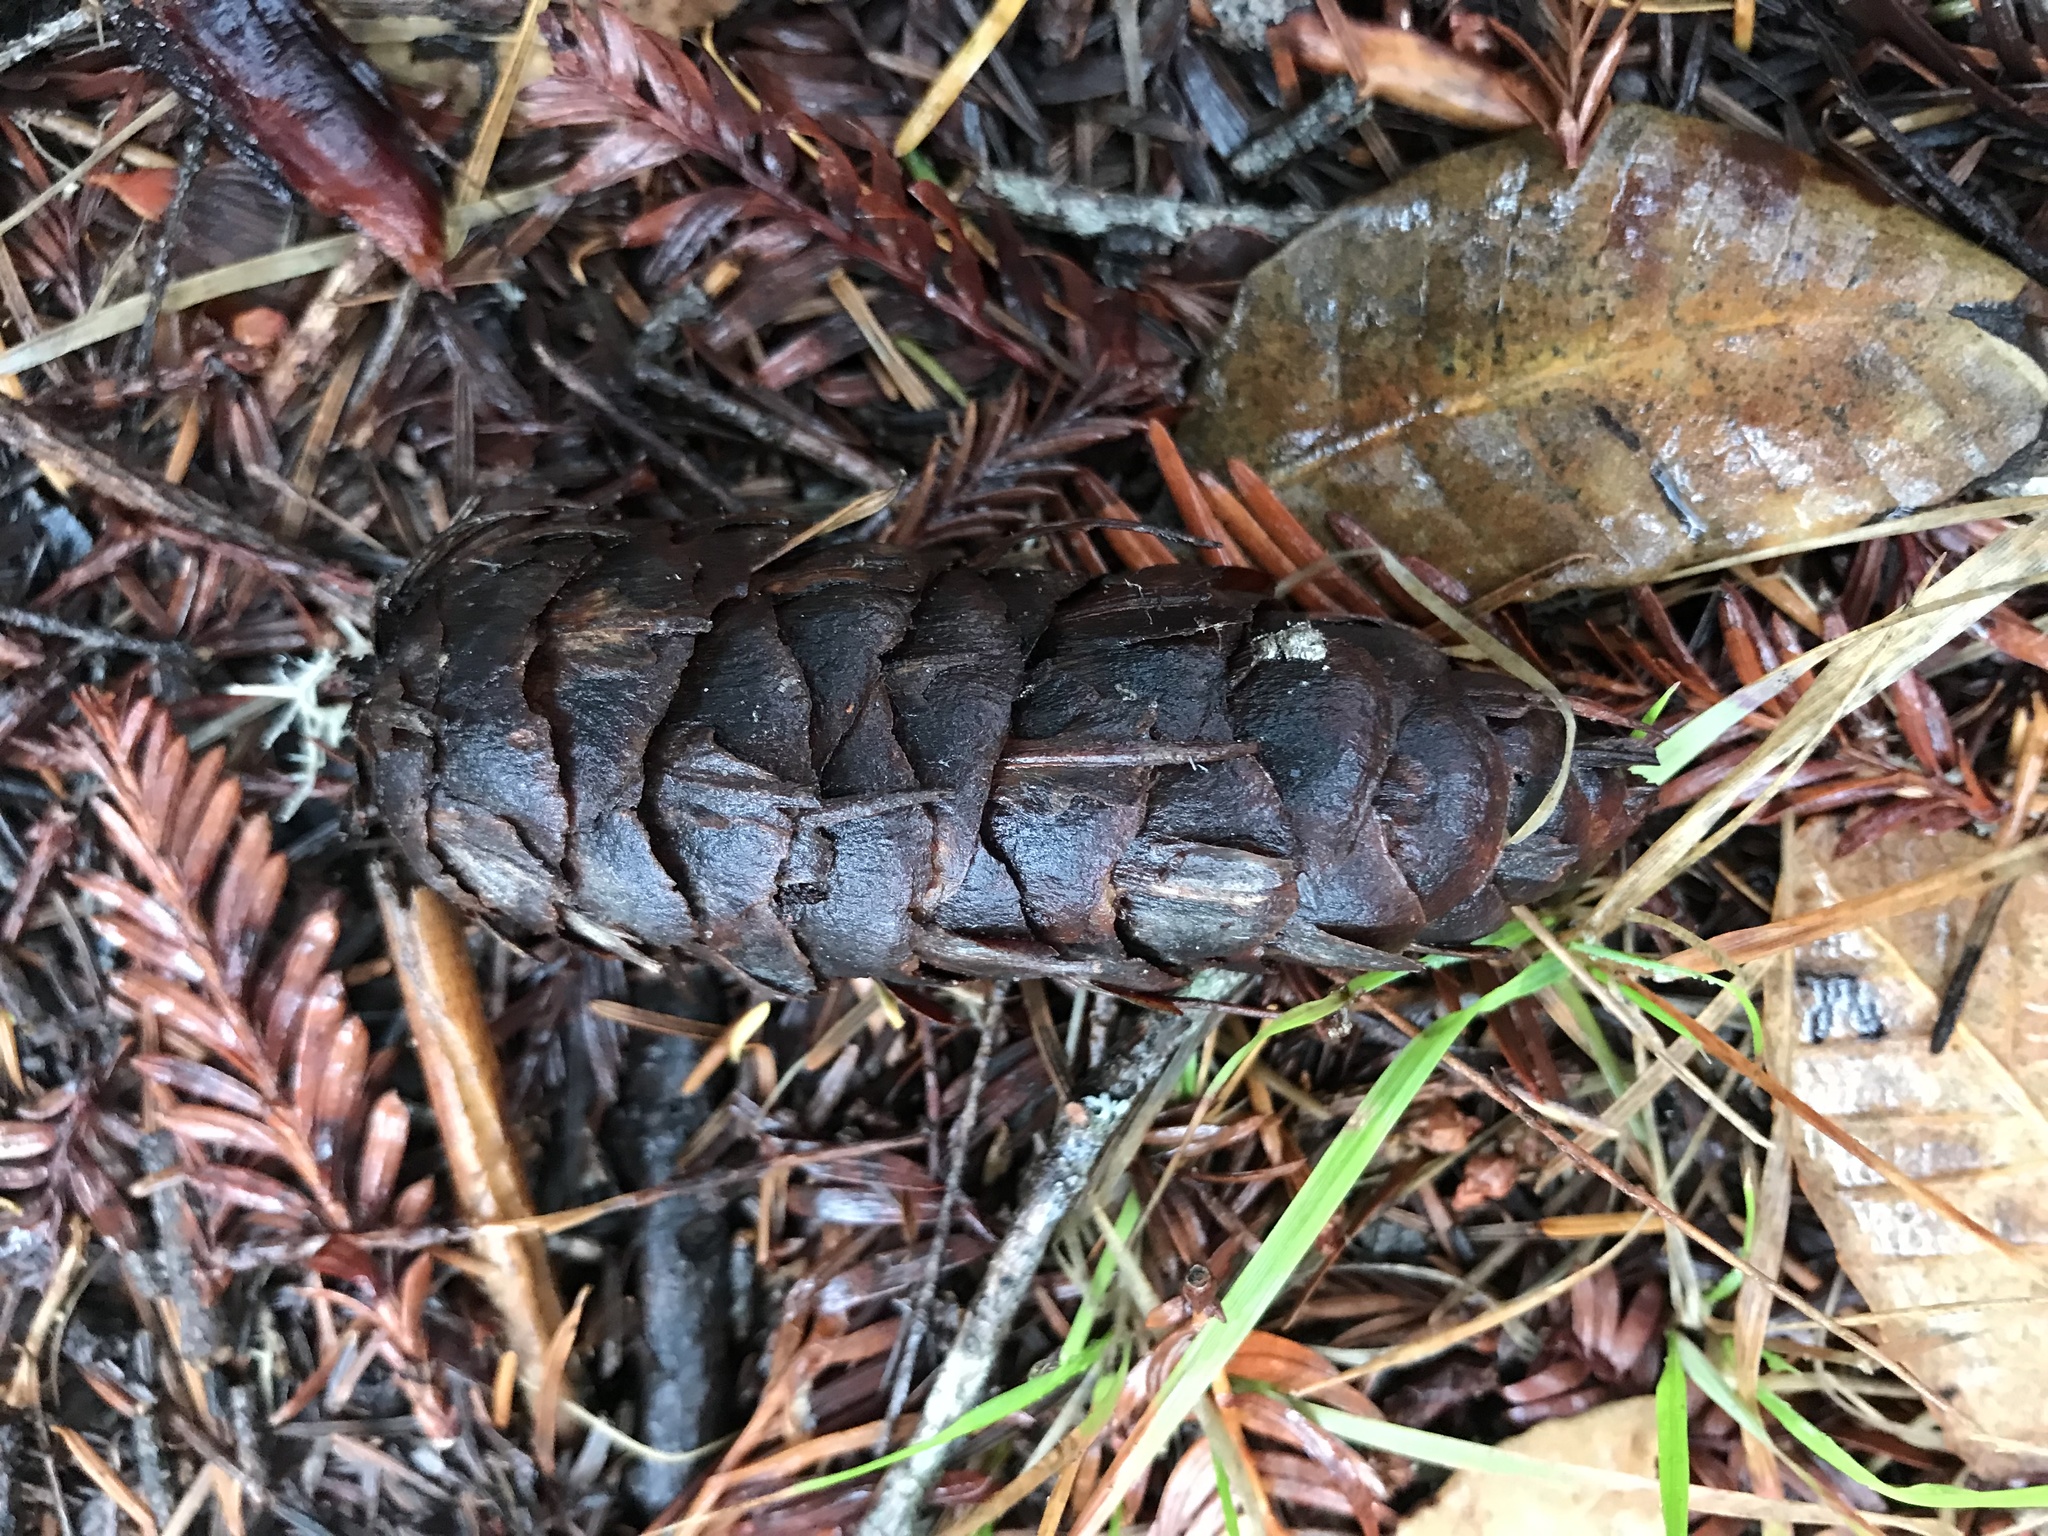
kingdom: Plantae
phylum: Tracheophyta
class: Pinopsida
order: Pinales
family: Pinaceae
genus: Pseudotsuga
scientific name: Pseudotsuga menziesii
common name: Douglas fir
